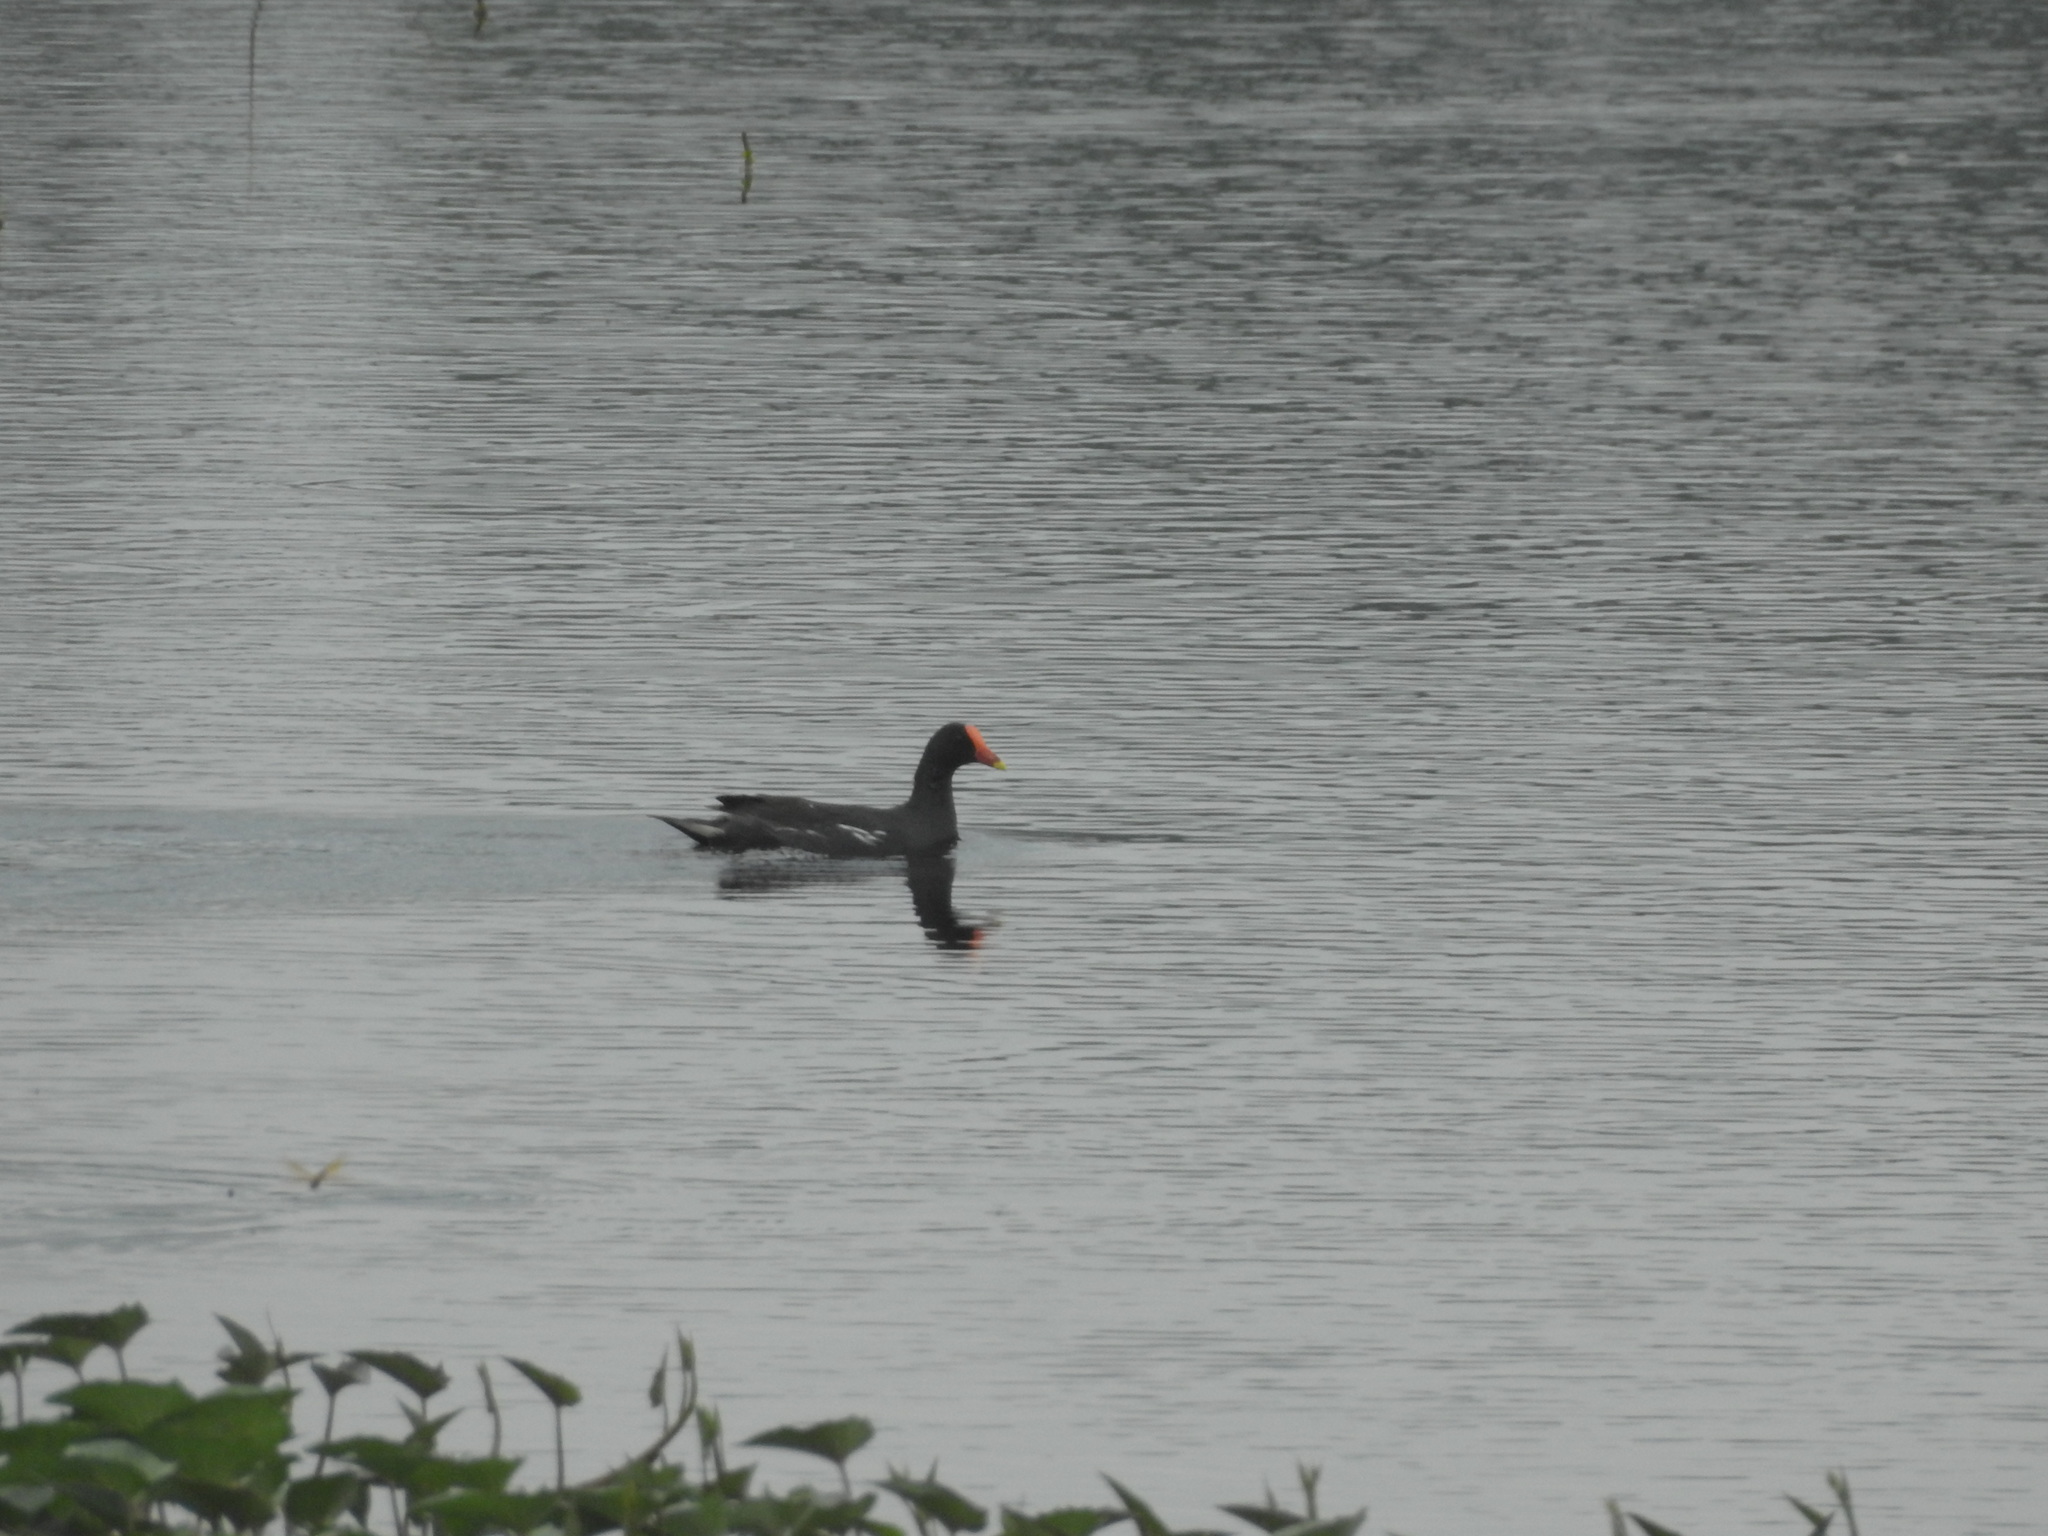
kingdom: Animalia
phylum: Chordata
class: Aves
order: Gruiformes
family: Rallidae
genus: Gallinula
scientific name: Gallinula chloropus
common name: Common moorhen
